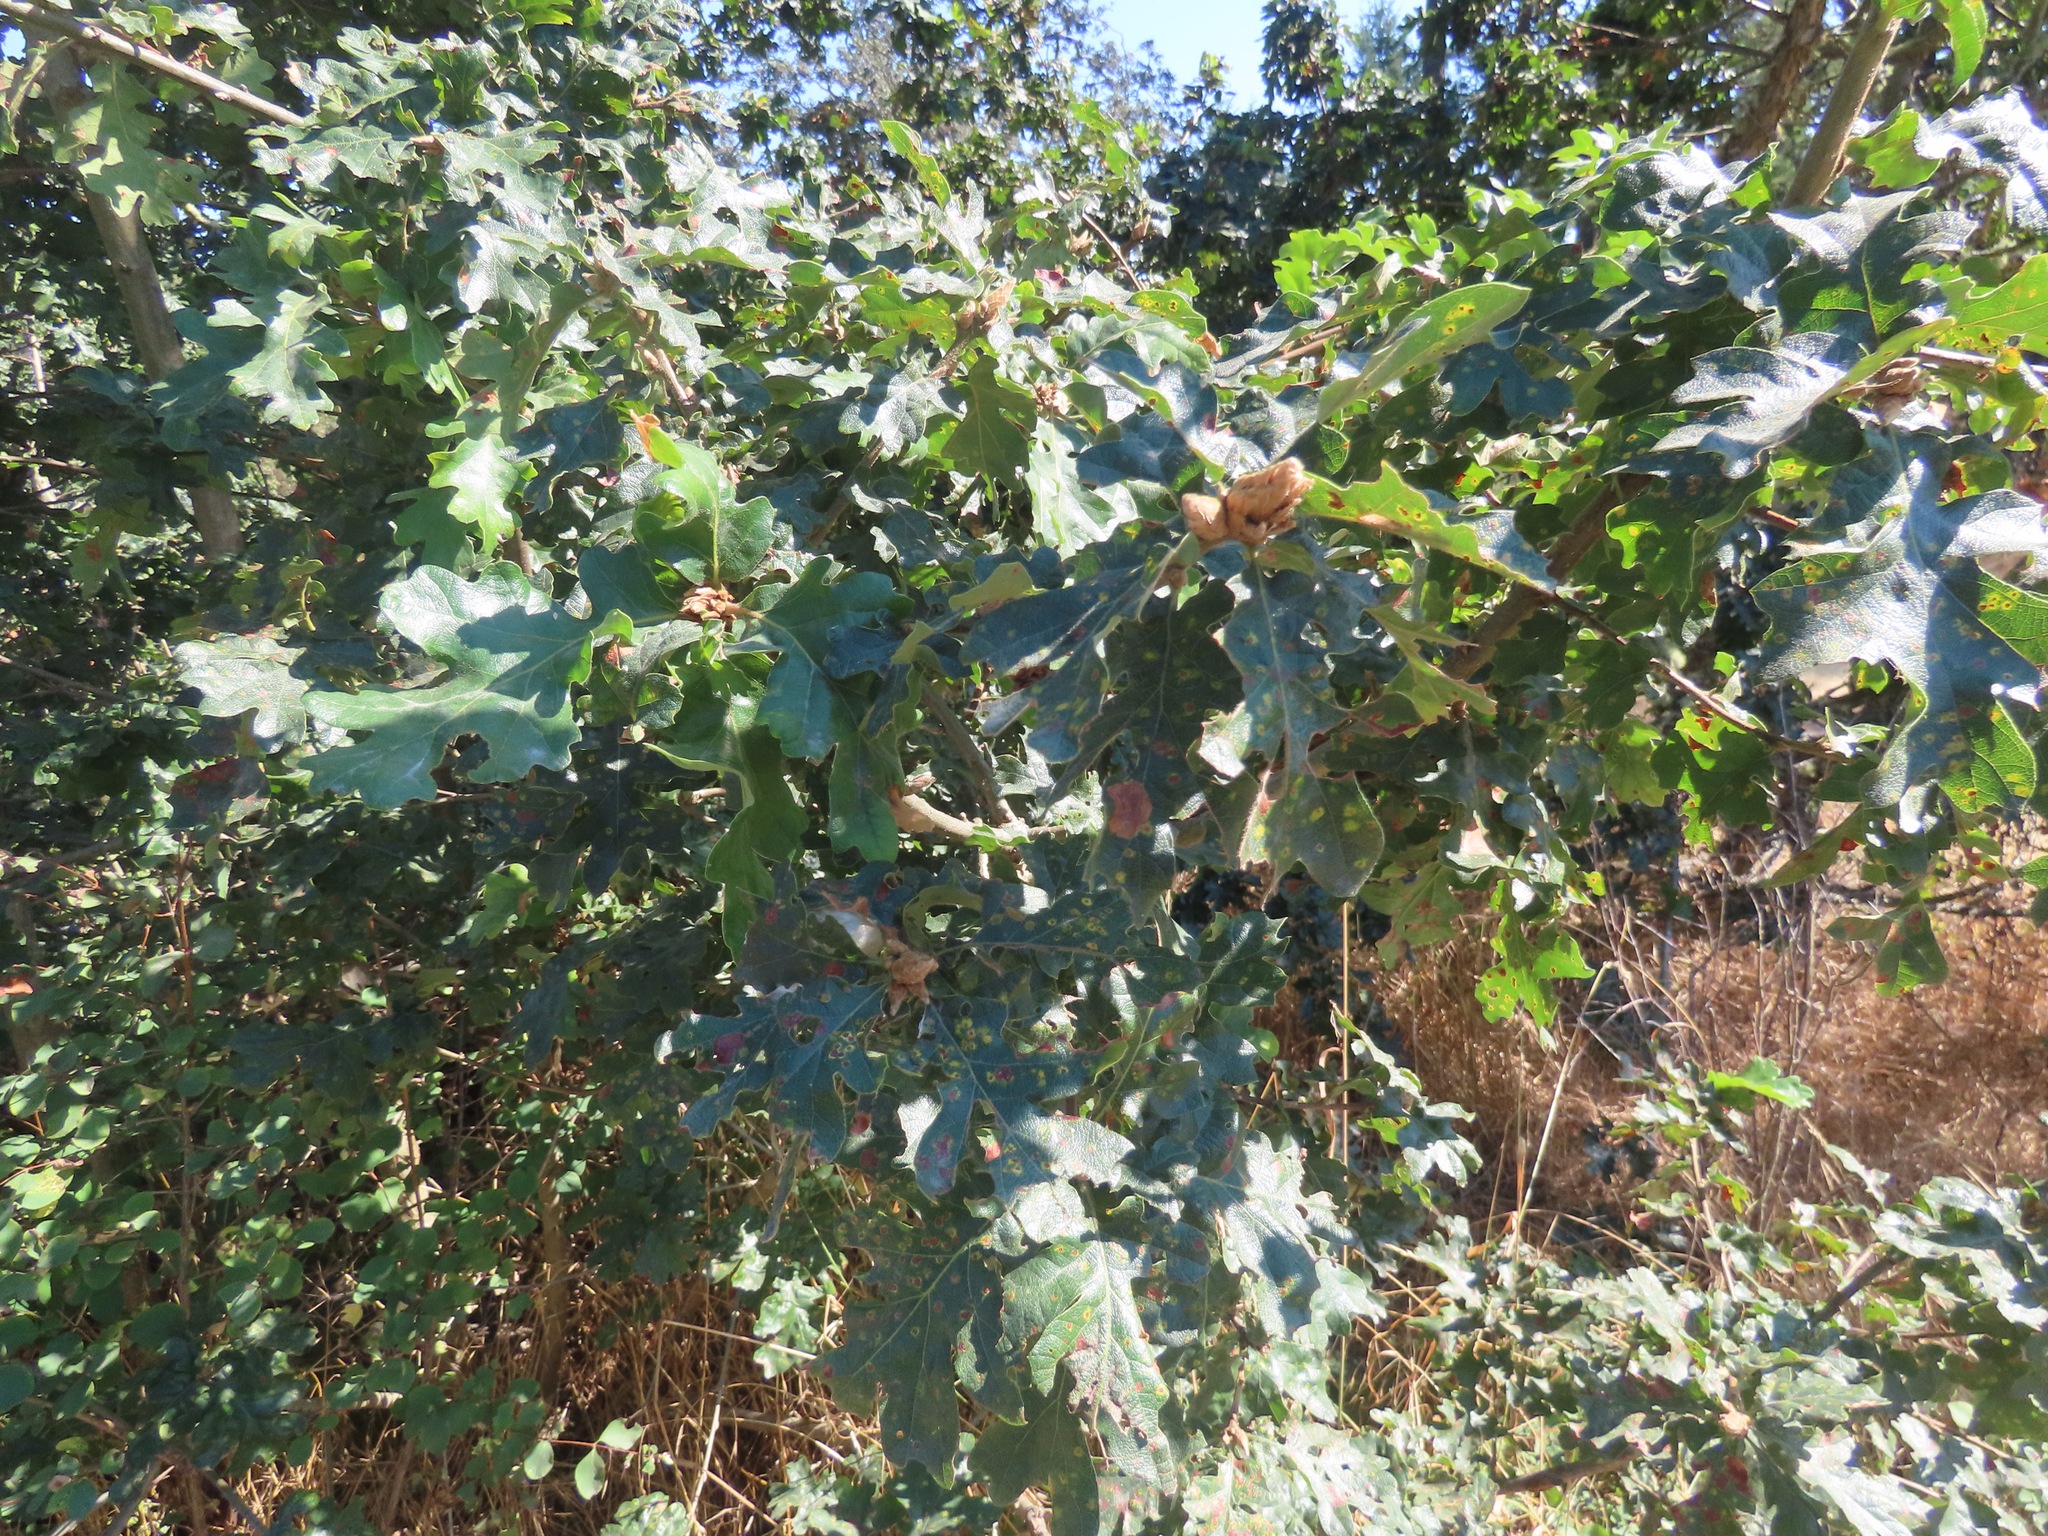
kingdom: Plantae
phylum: Tracheophyta
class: Magnoliopsida
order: Fagales
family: Fagaceae
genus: Quercus
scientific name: Quercus garryana
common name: Garry oak
